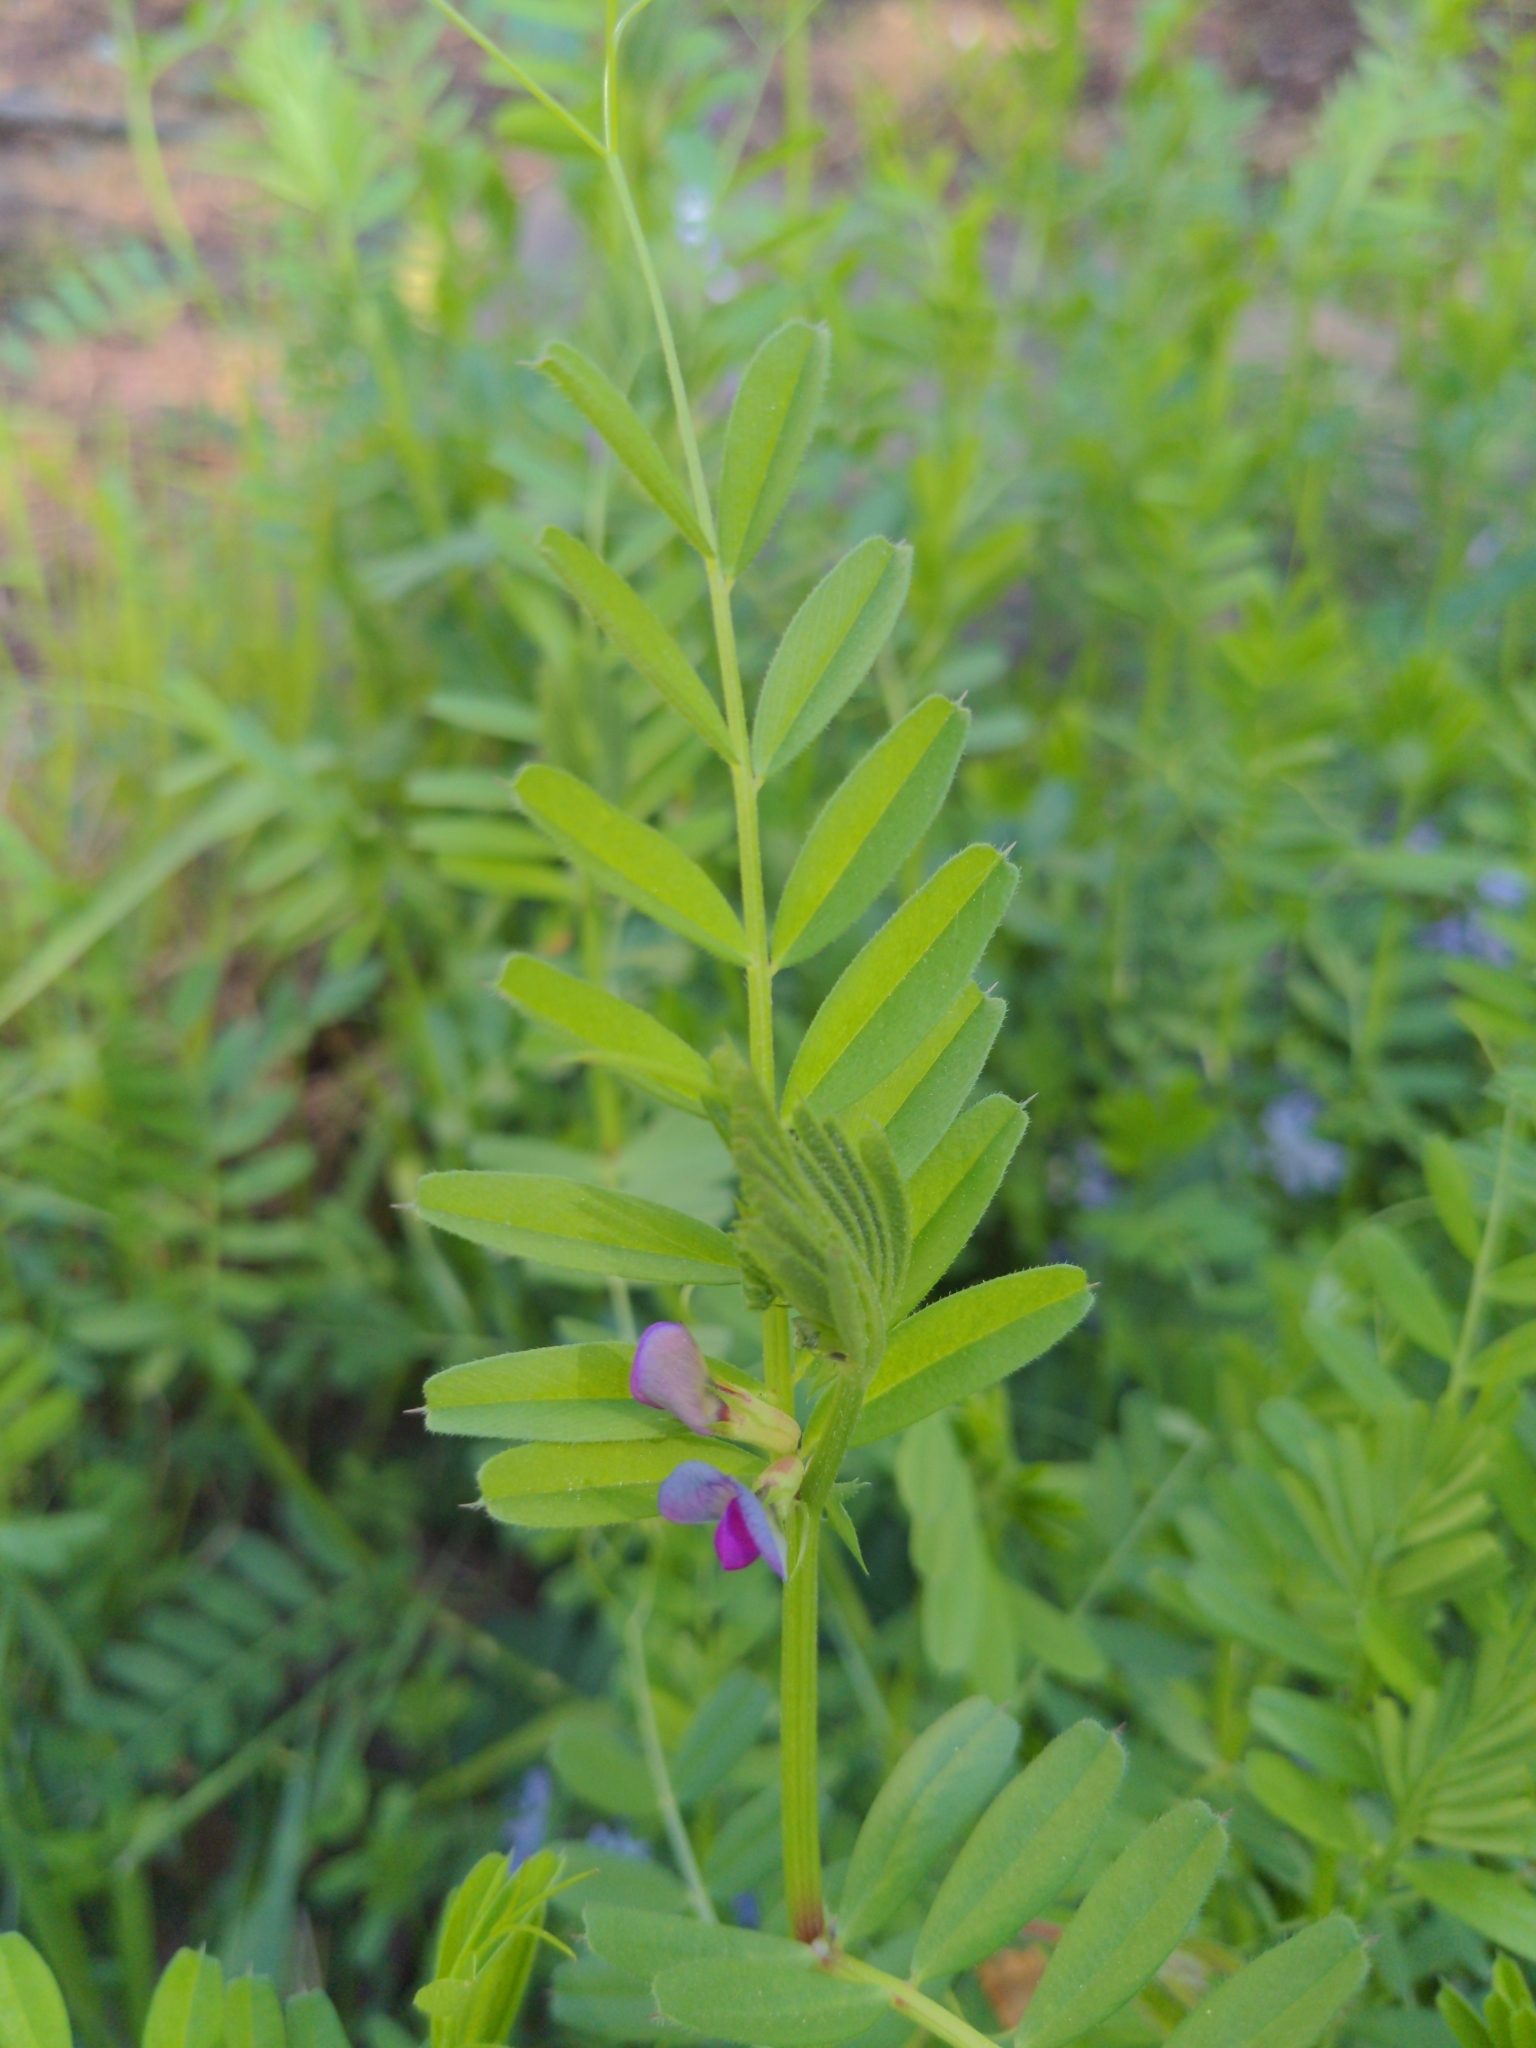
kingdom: Plantae
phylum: Tracheophyta
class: Magnoliopsida
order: Fabales
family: Fabaceae
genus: Vicia
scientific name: Vicia sativa
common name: Garden vetch
